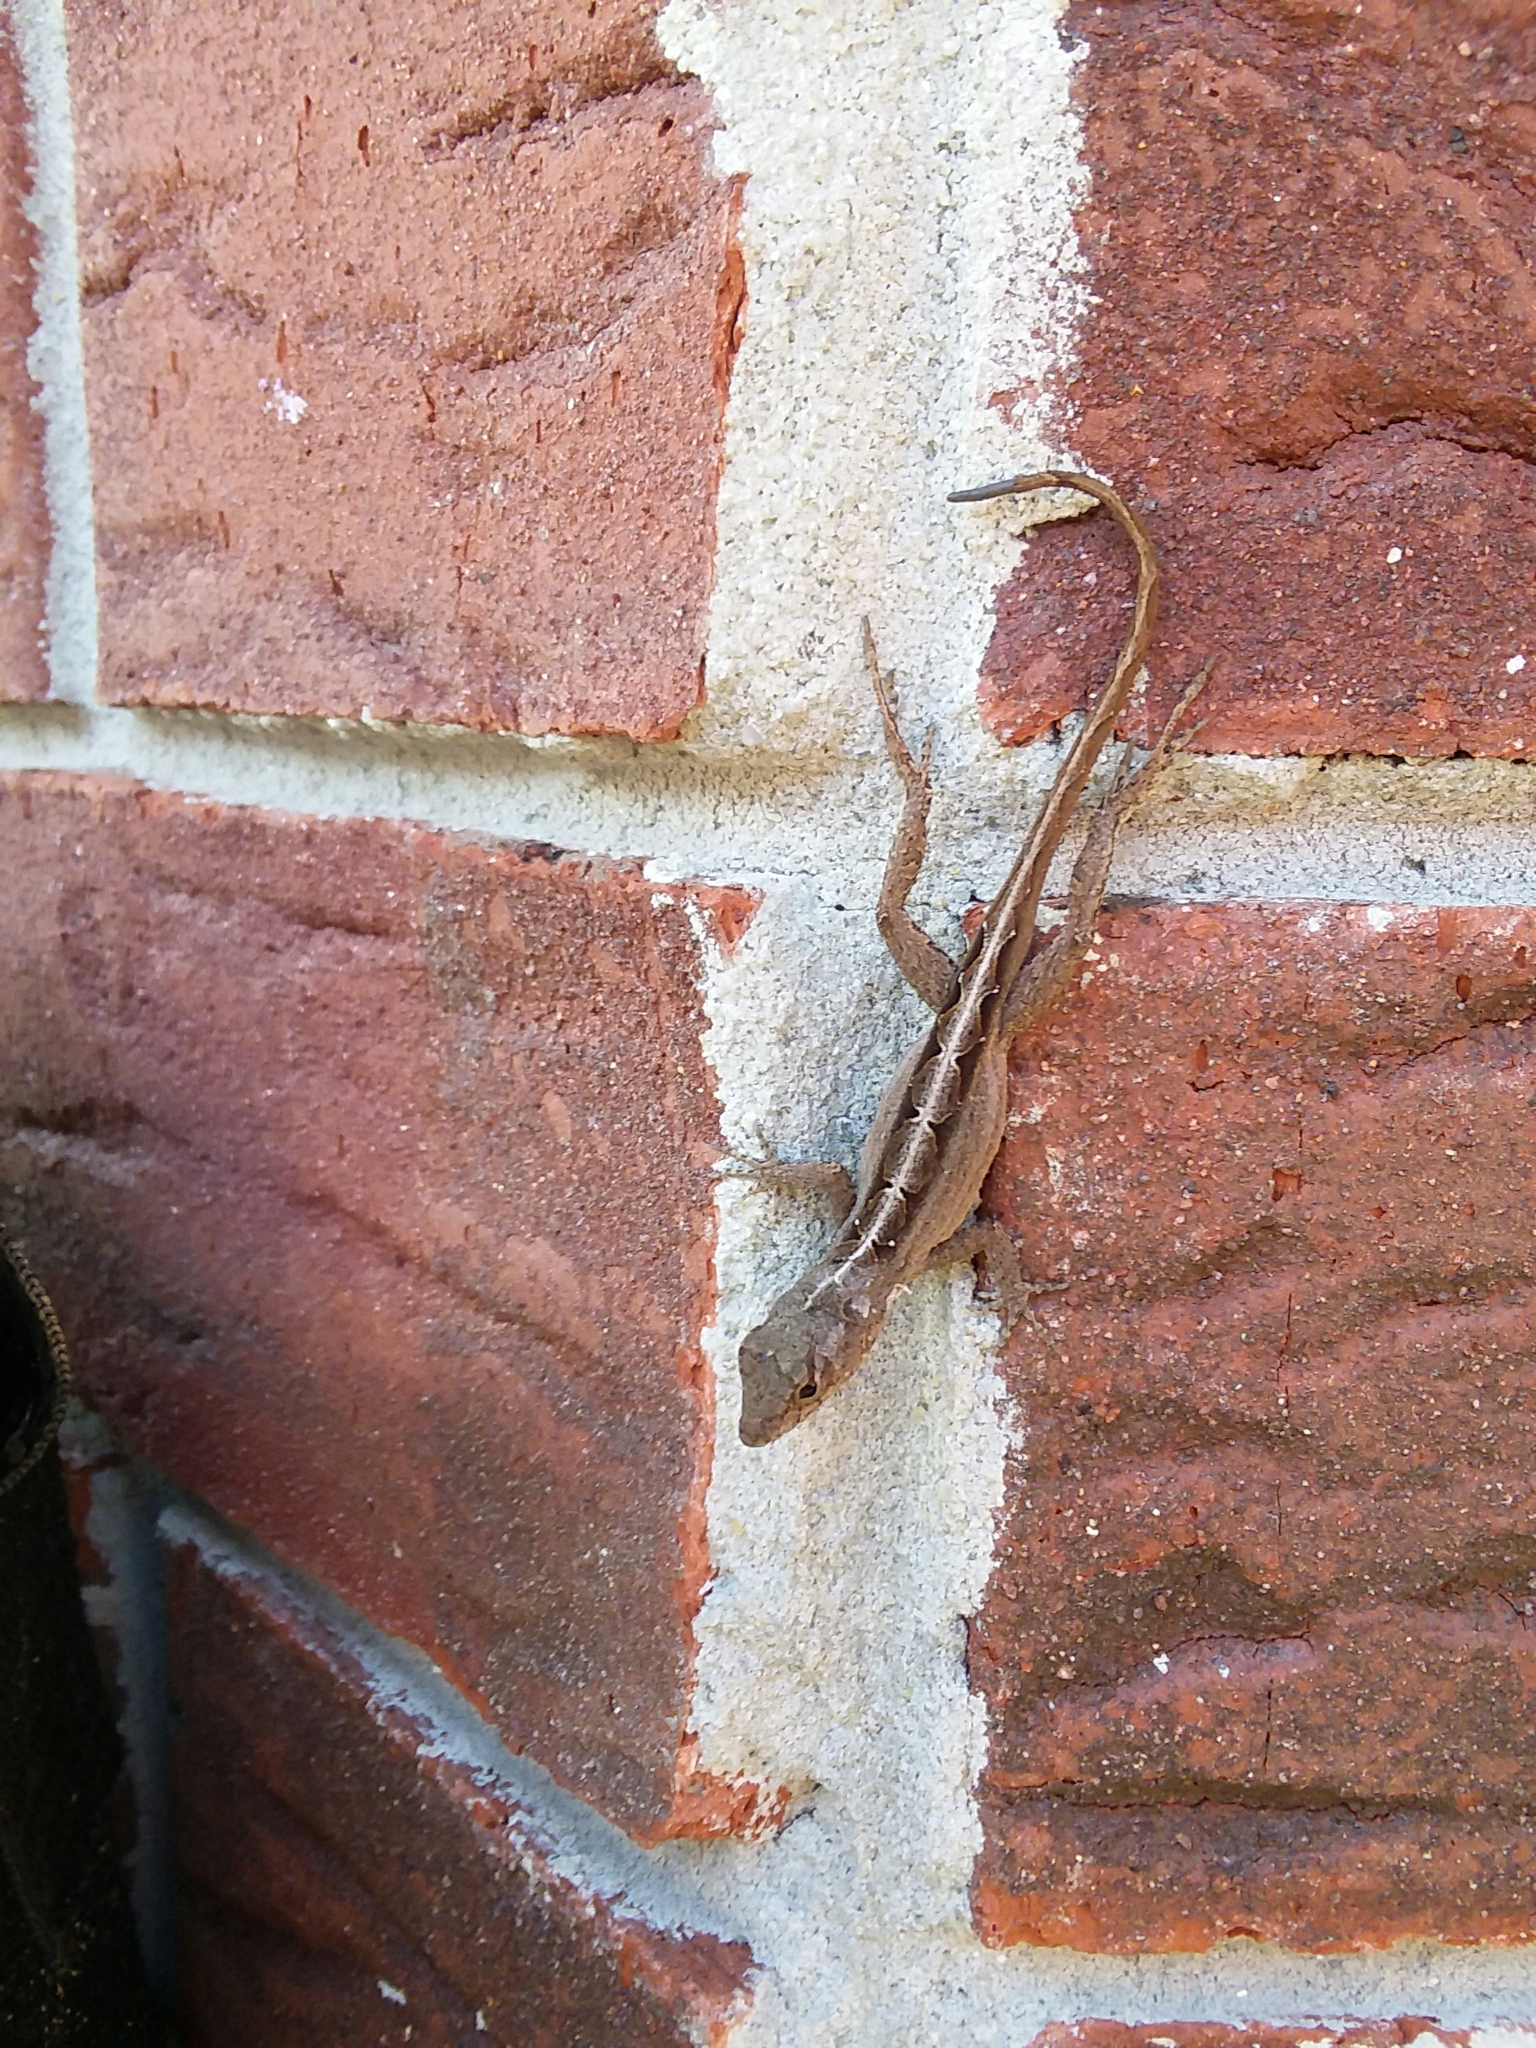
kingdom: Animalia
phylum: Chordata
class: Squamata
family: Dactyloidae
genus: Anolis
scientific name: Anolis sagrei
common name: Brown anole
